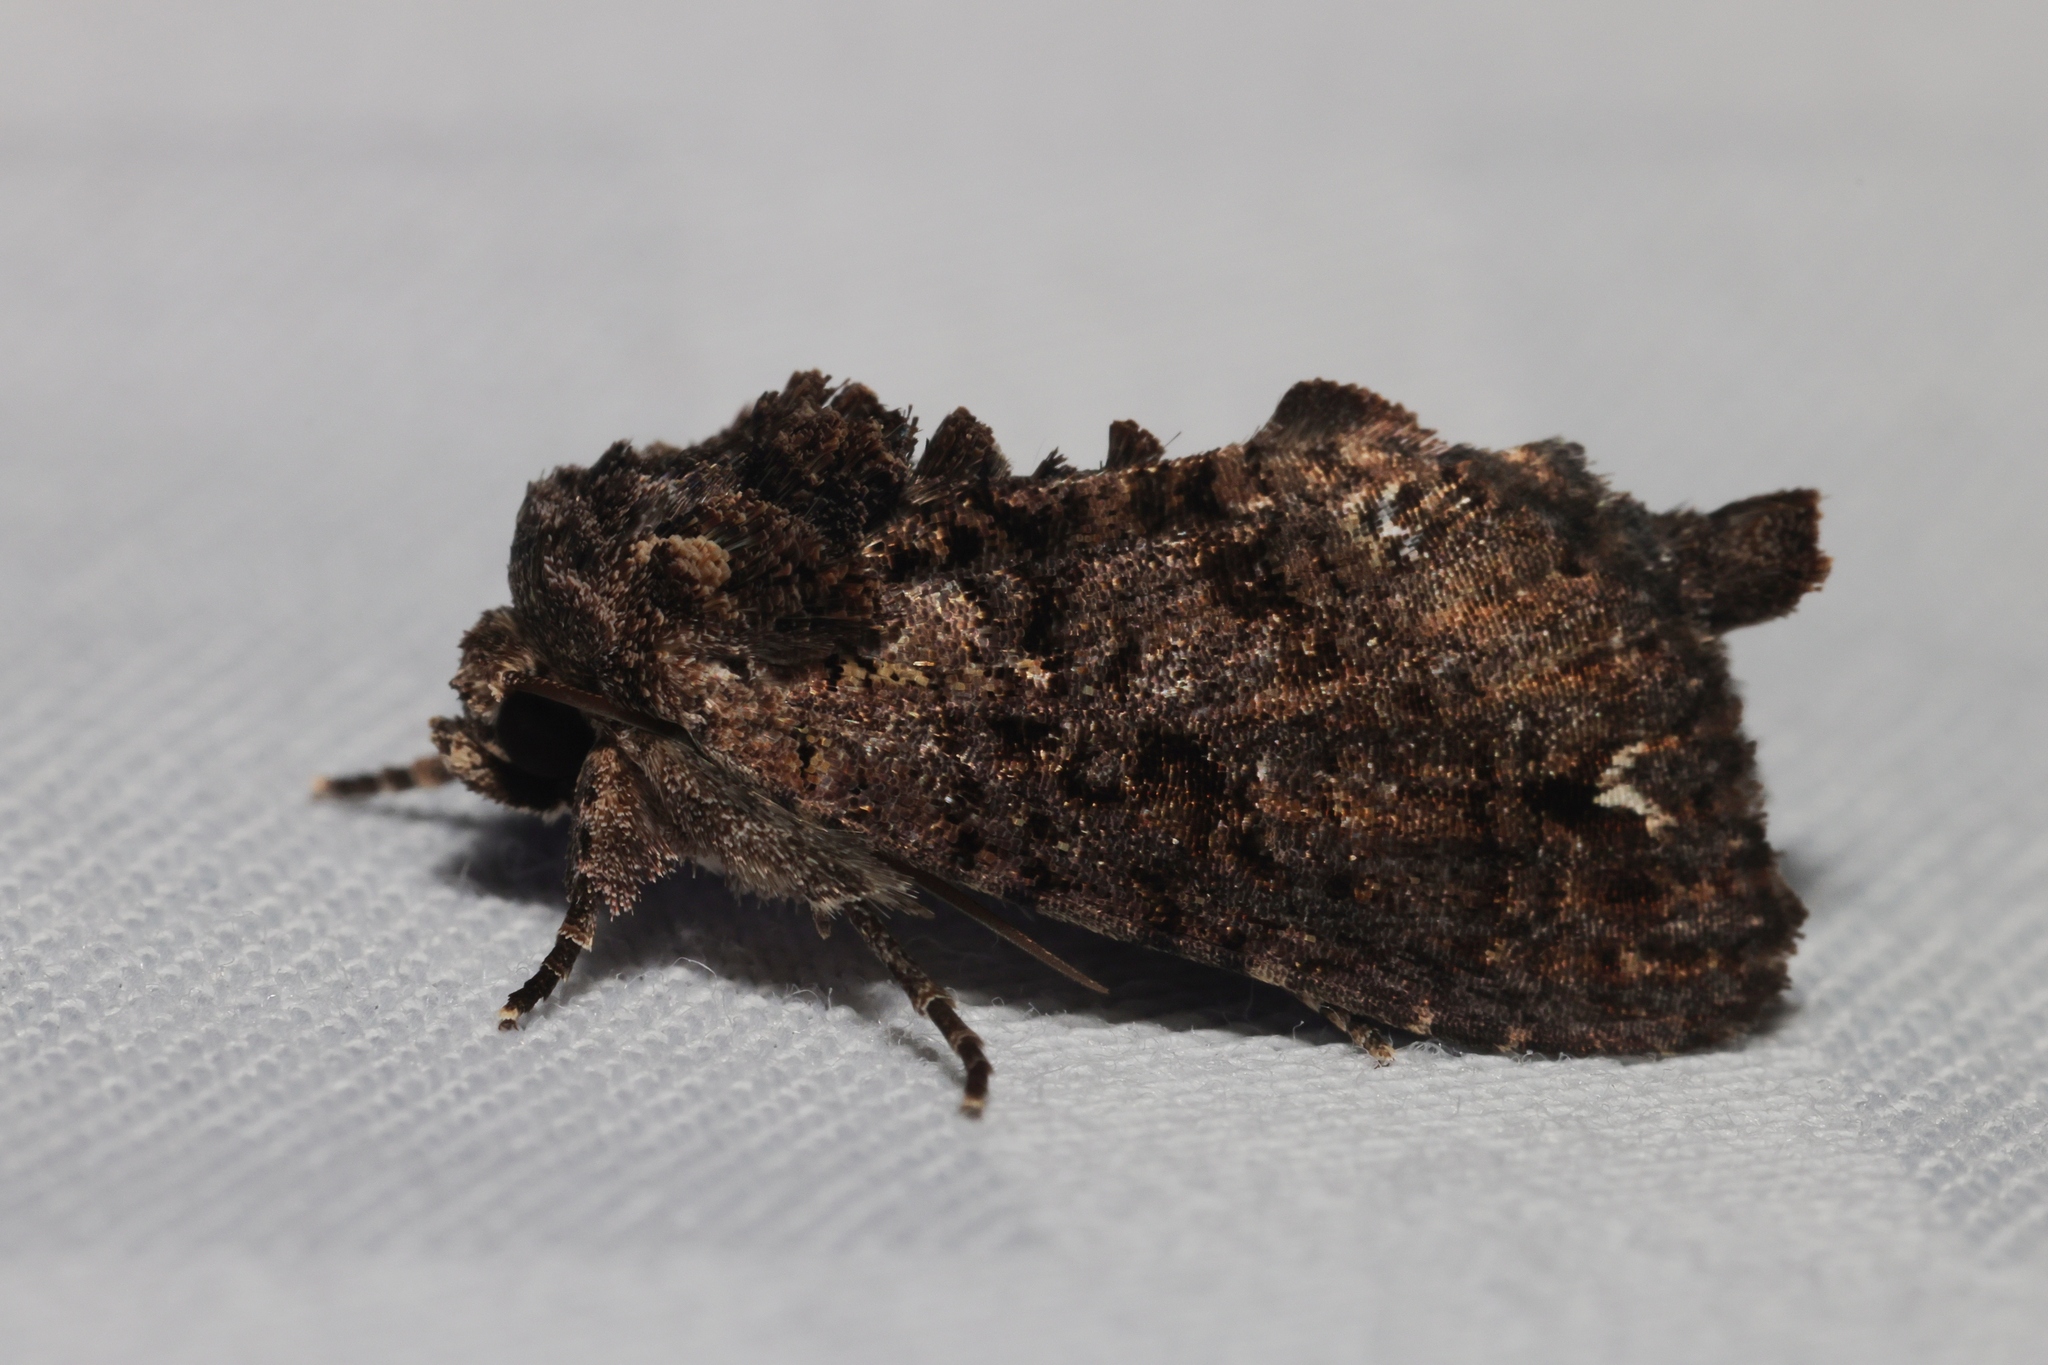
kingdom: Animalia
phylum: Arthropoda
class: Insecta
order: Lepidoptera
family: Noctuidae
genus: Paradiopa
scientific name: Paradiopa postfusca
